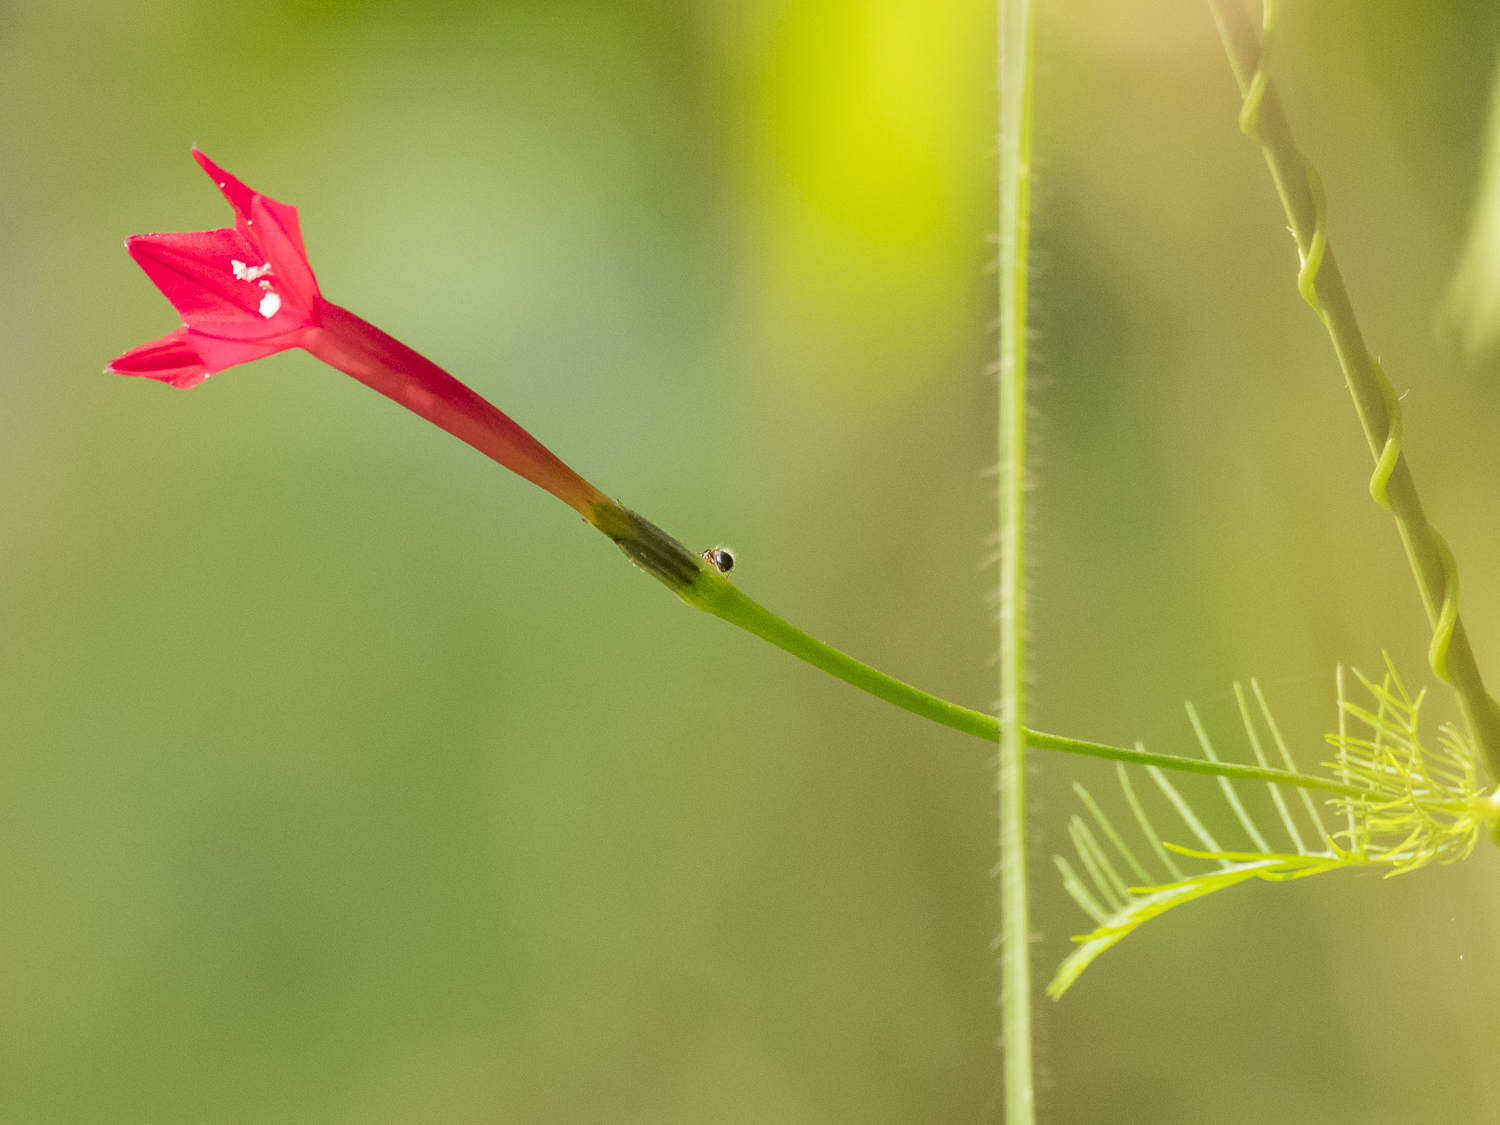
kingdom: Plantae
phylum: Tracheophyta
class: Magnoliopsida
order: Solanales
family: Convolvulaceae
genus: Ipomoea
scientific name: Ipomoea quamoclit
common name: Cypress vine
